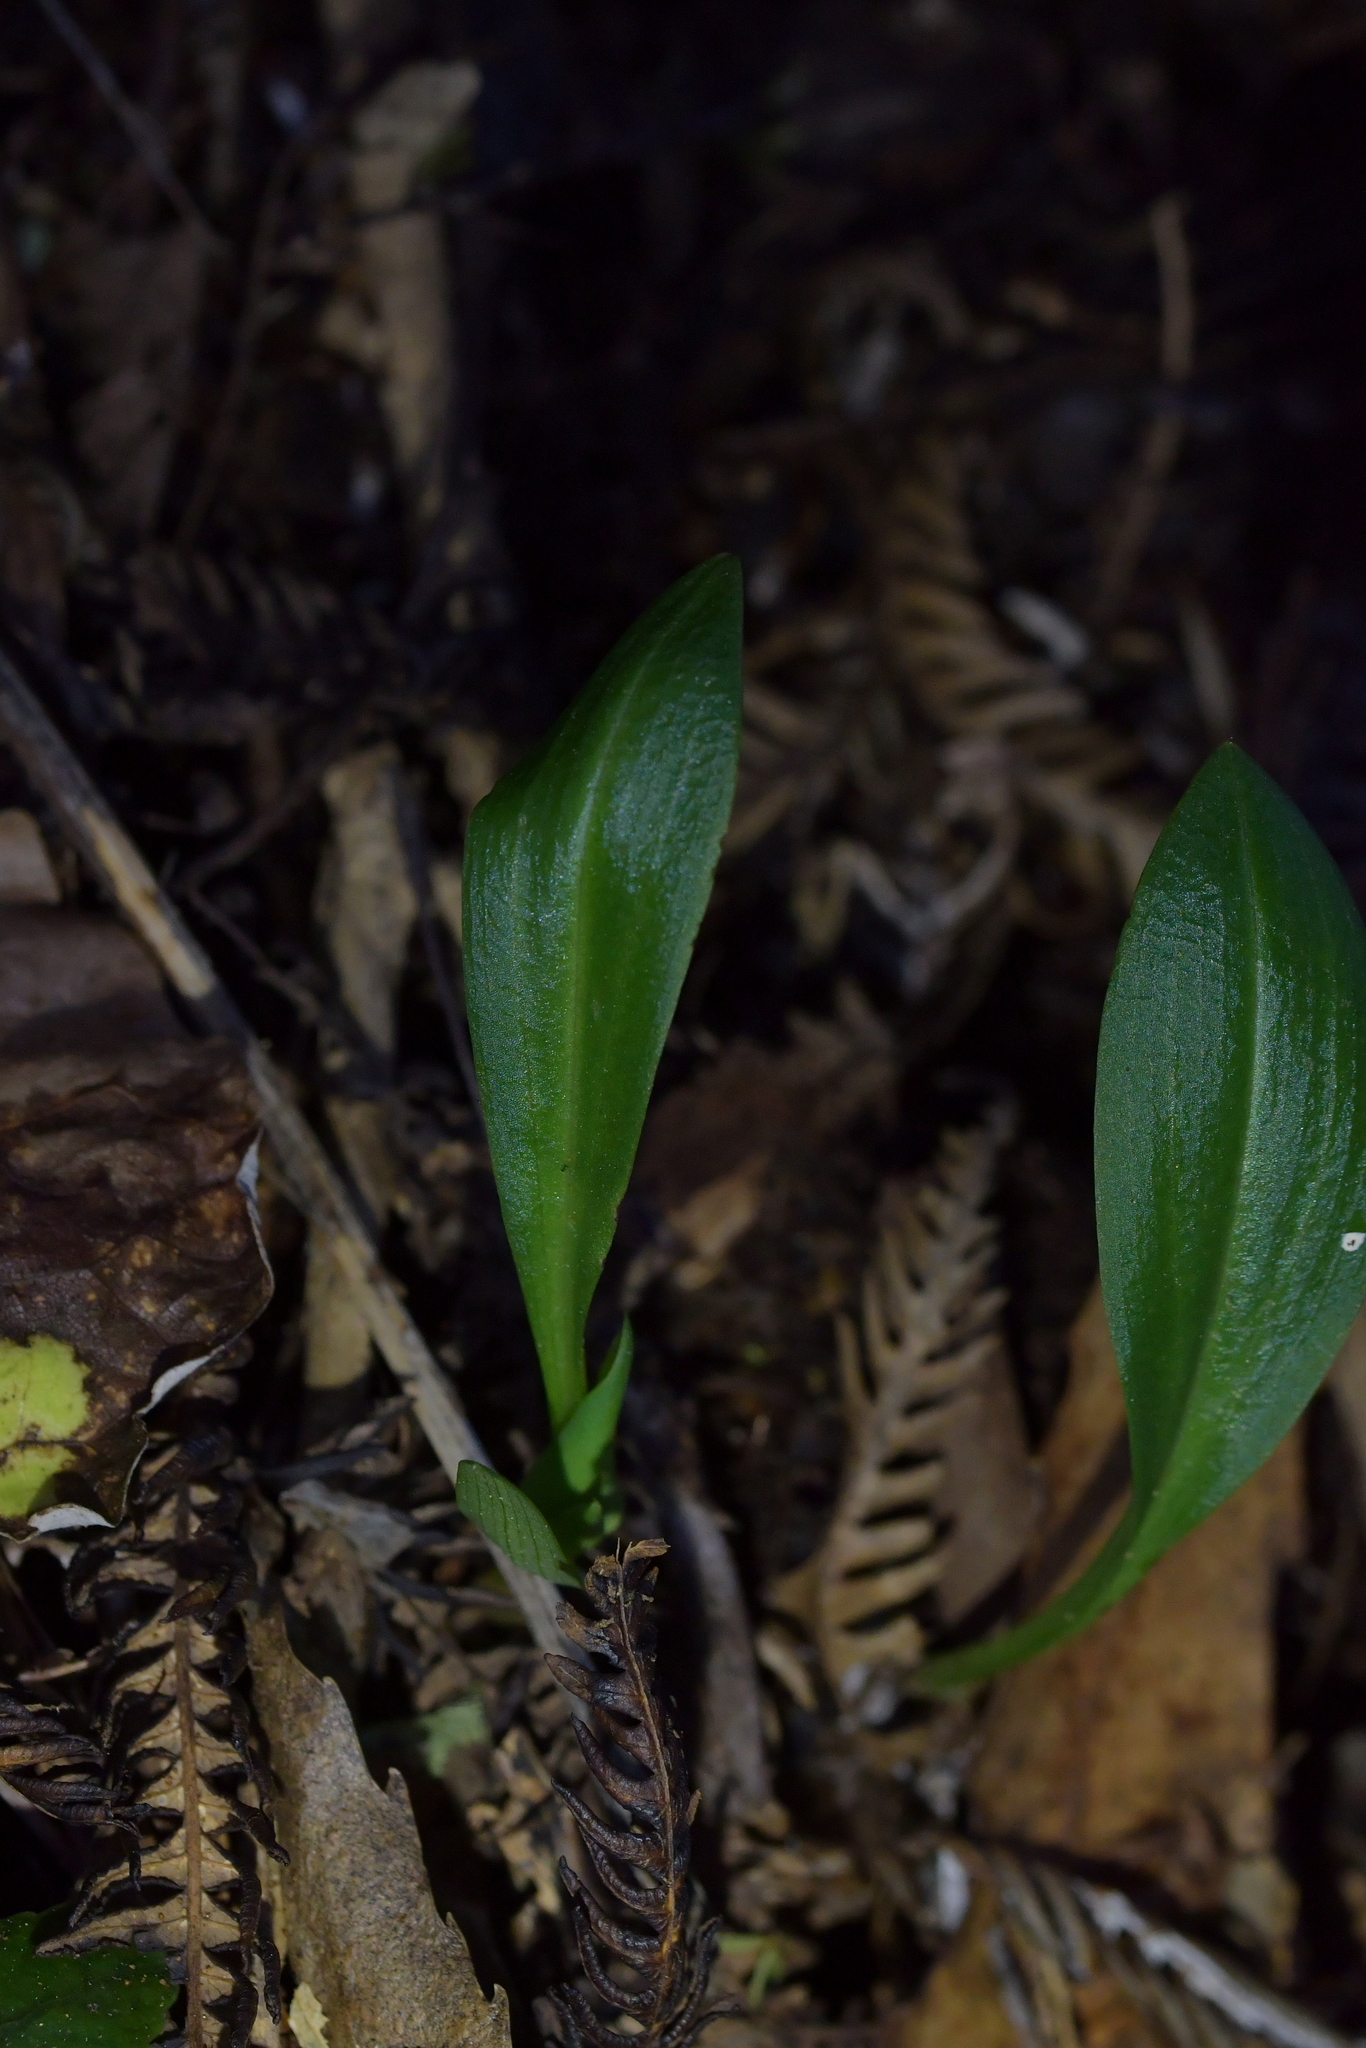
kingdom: Plantae
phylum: Tracheophyta
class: Liliopsida
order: Asparagales
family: Orchidaceae
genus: Chiloglottis
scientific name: Chiloglottis cornuta
